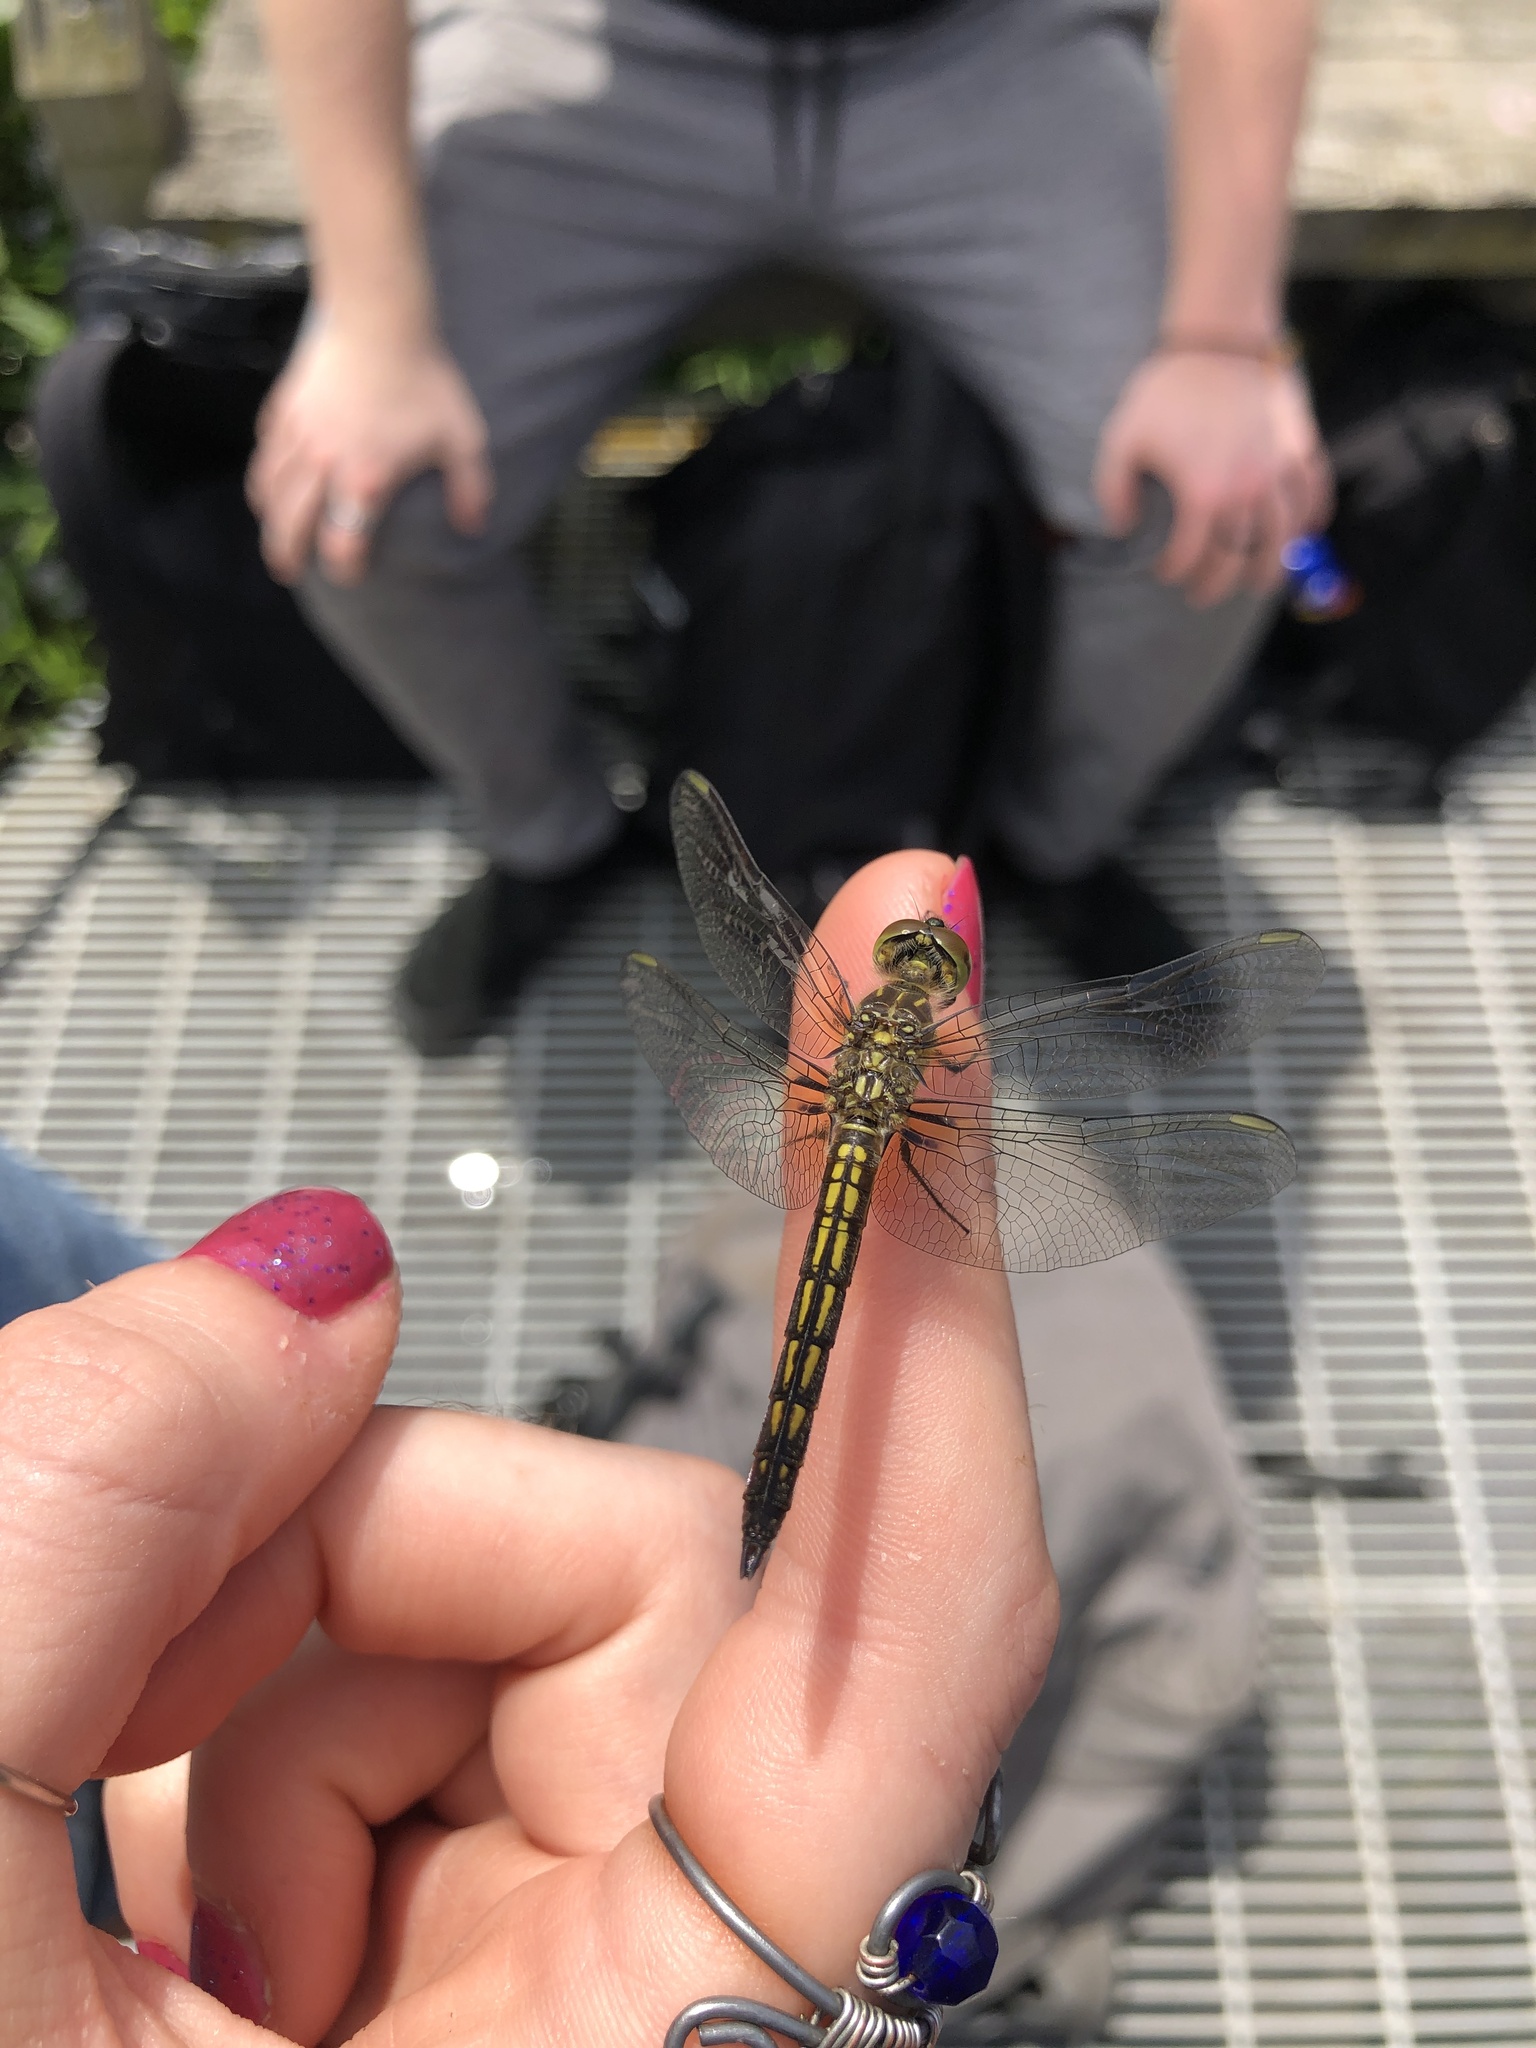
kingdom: Animalia
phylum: Arthropoda
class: Insecta
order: Odonata
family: Libellulidae
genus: Pachydiplax
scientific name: Pachydiplax longipennis
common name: Blue dasher
